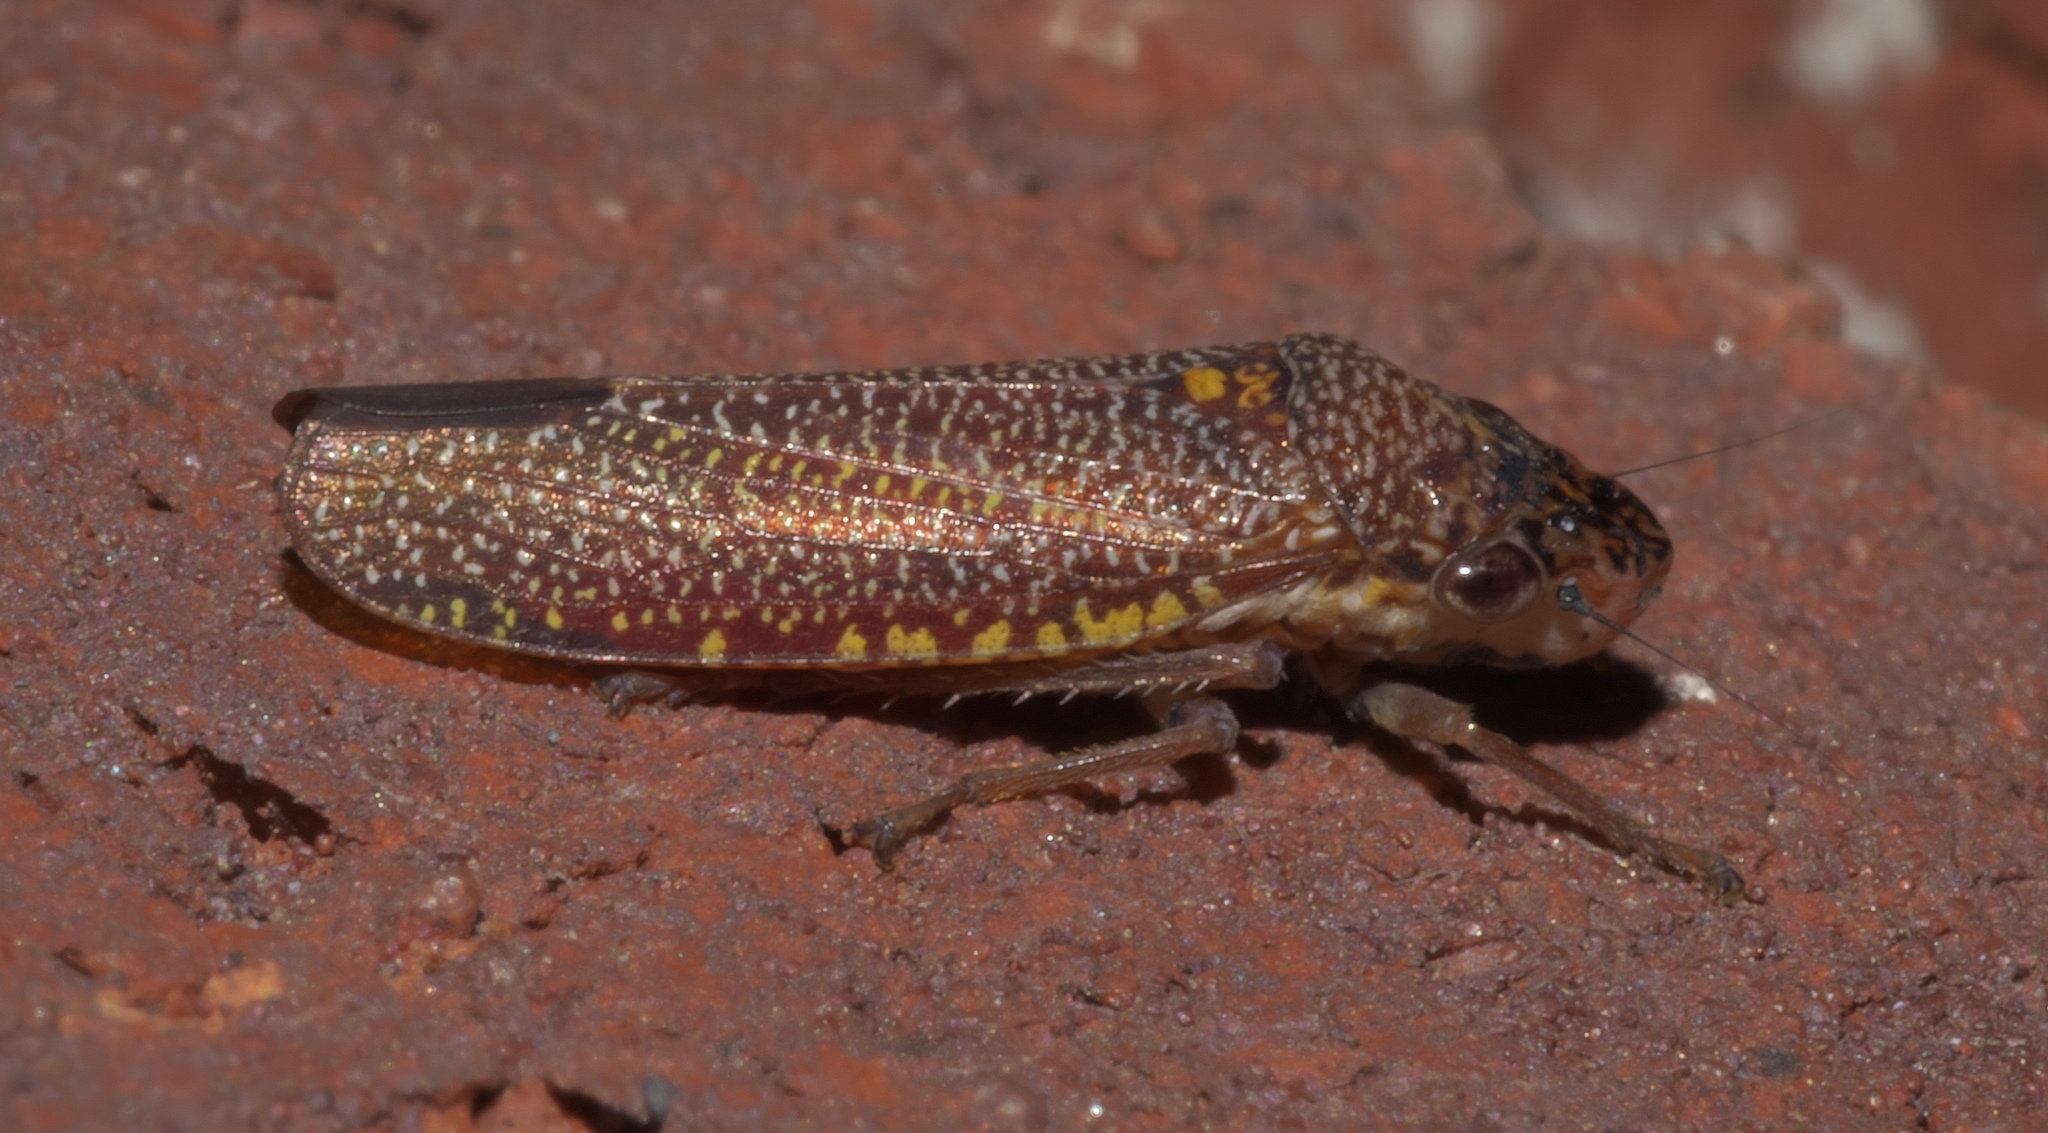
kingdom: Animalia
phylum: Arthropoda
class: Insecta
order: Hemiptera
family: Cicadellidae
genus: Paraulacizes
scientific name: Paraulacizes irrorata
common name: Speckled sharpshooter
